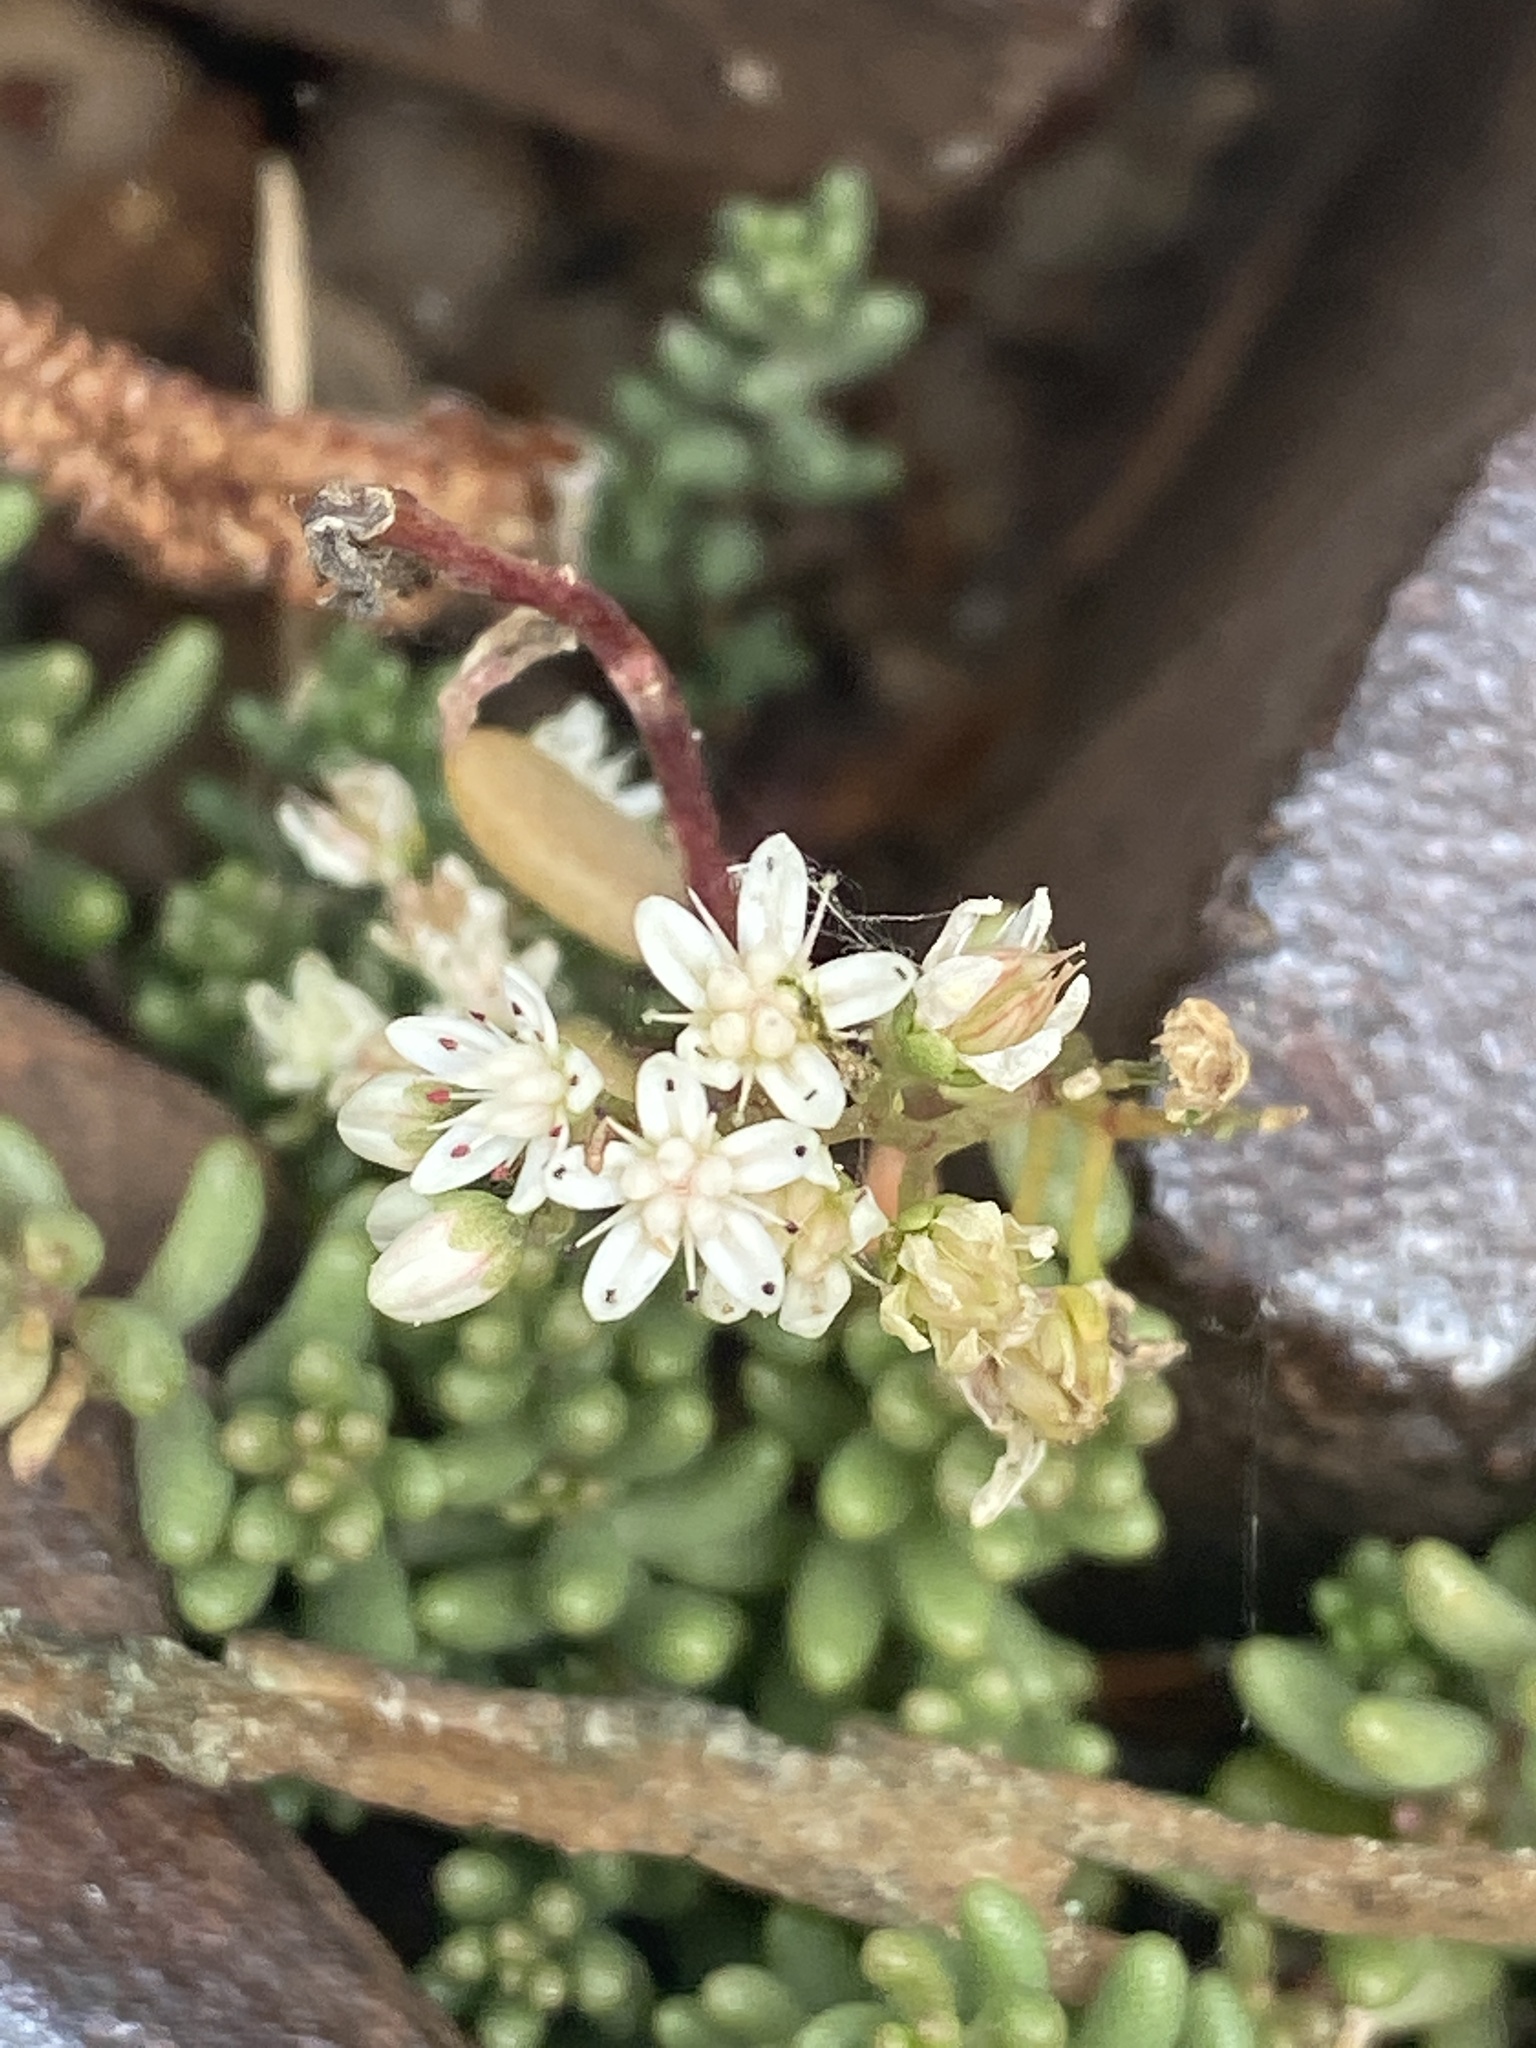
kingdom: Plantae
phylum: Tracheophyta
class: Magnoliopsida
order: Saxifragales
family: Crassulaceae
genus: Sedum
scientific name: Sedum album
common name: White stonecrop
